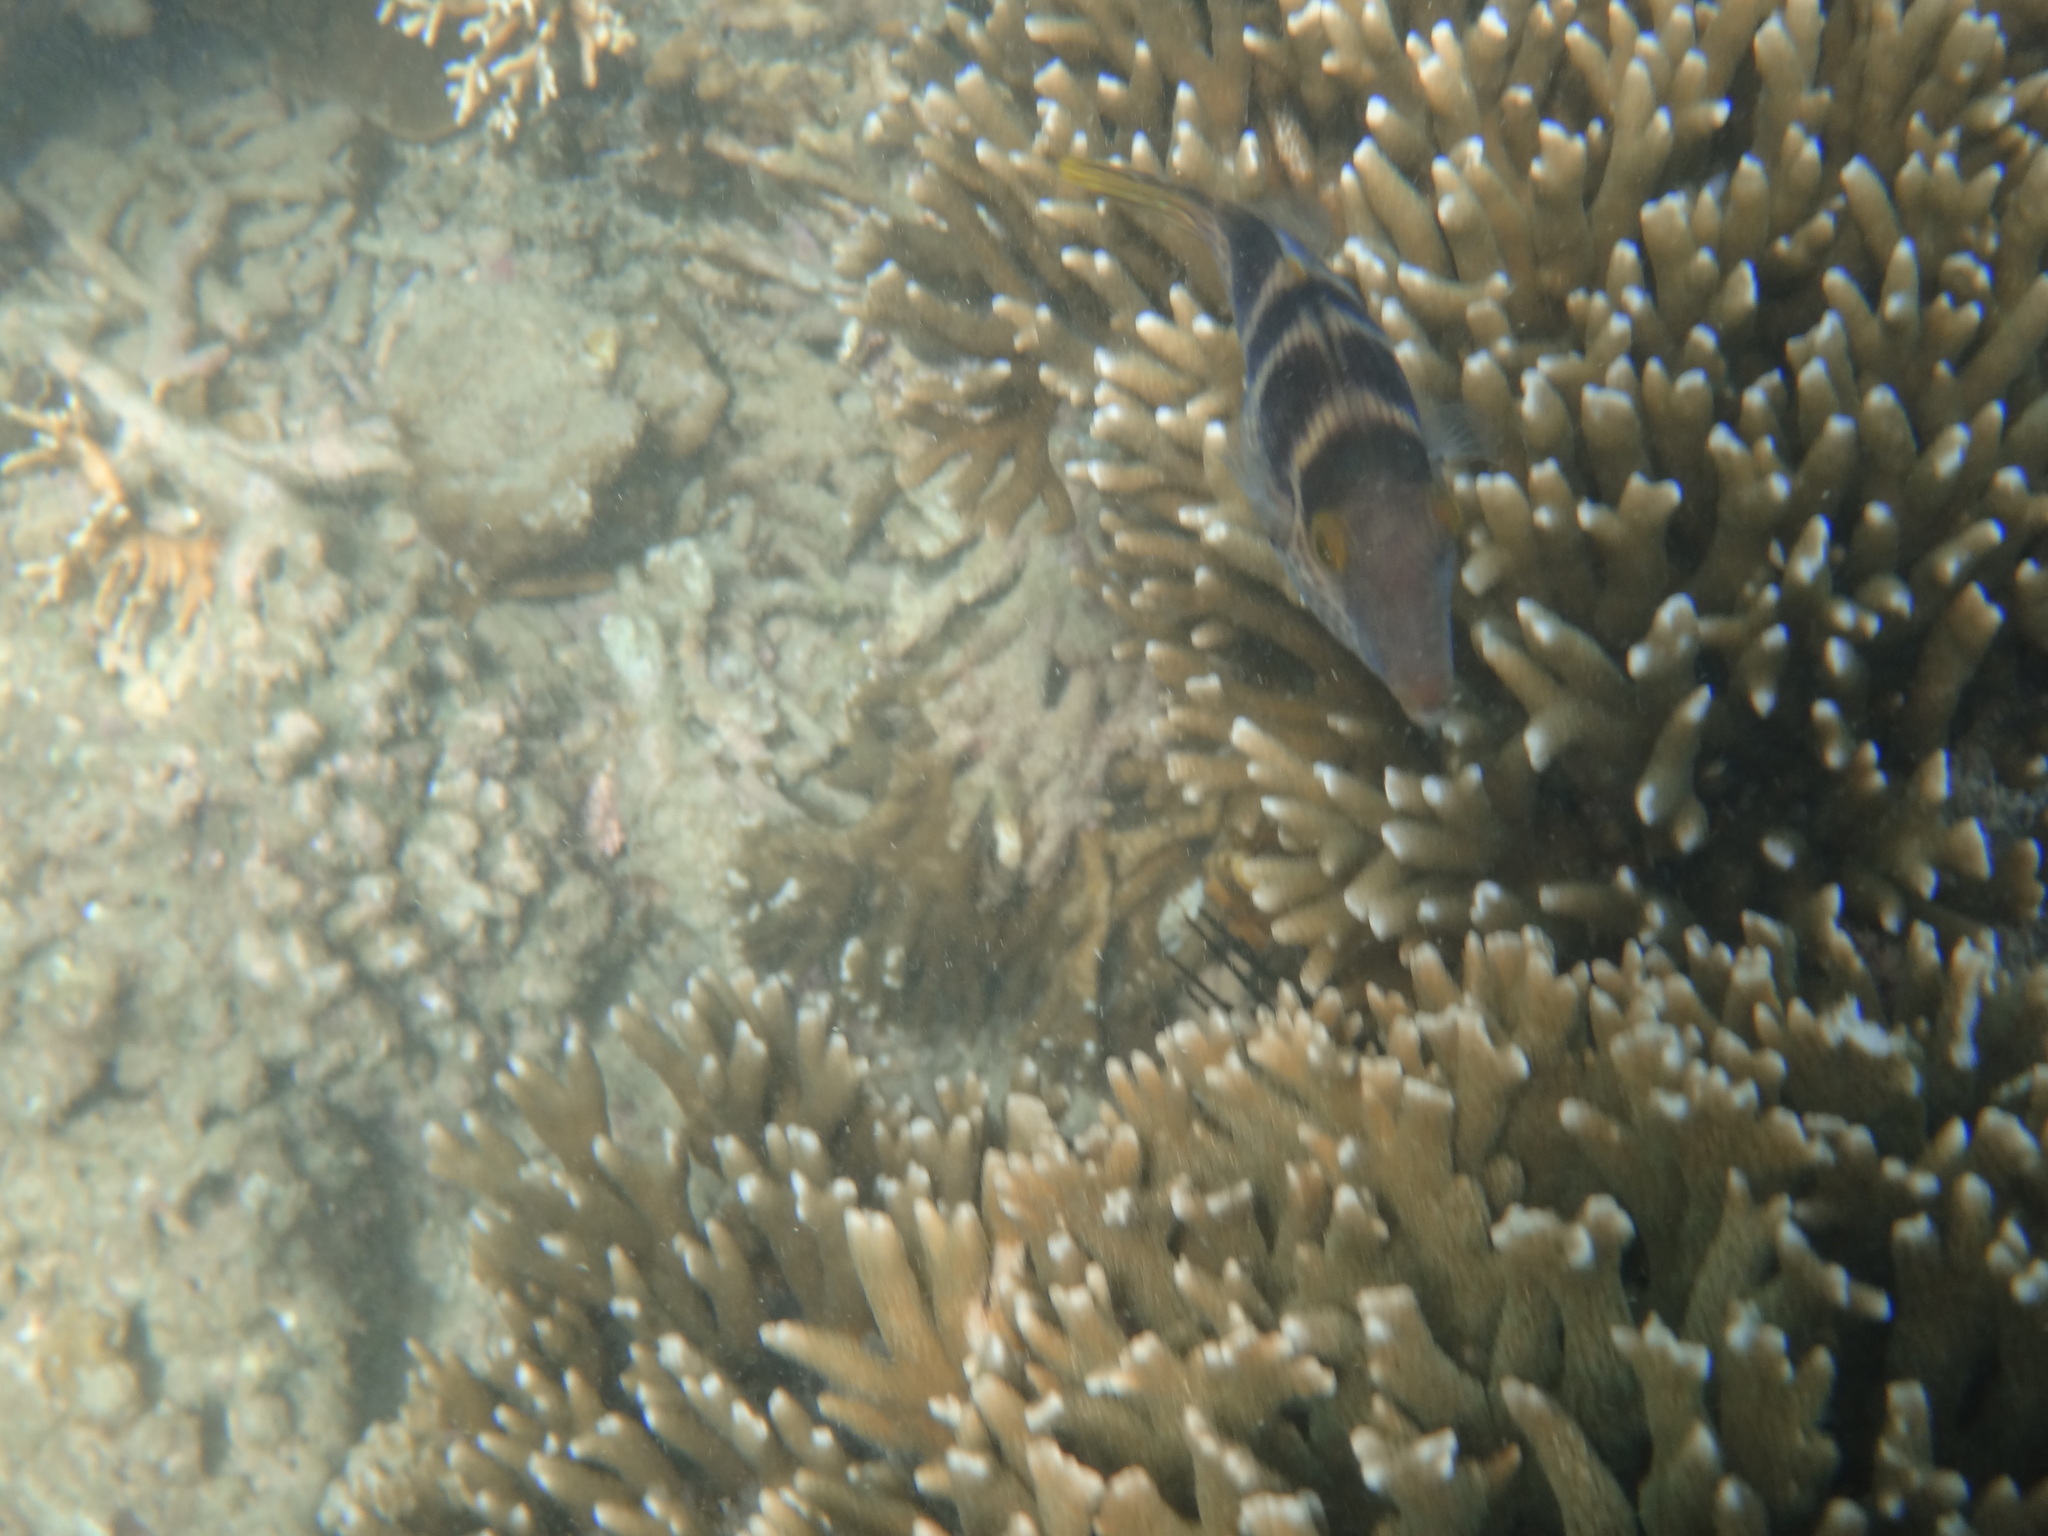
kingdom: Animalia
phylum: Chordata
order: Tetraodontiformes
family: Tetraodontidae
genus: Canthigaster
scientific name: Canthigaster valentini
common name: Banded toby
